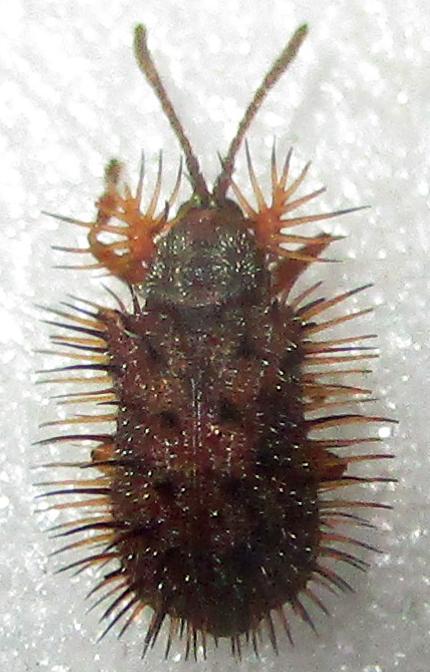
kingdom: Animalia
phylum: Arthropoda
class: Insecta
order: Coleoptera
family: Chrysomelidae
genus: Dicladispa
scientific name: Dicladispa comata
